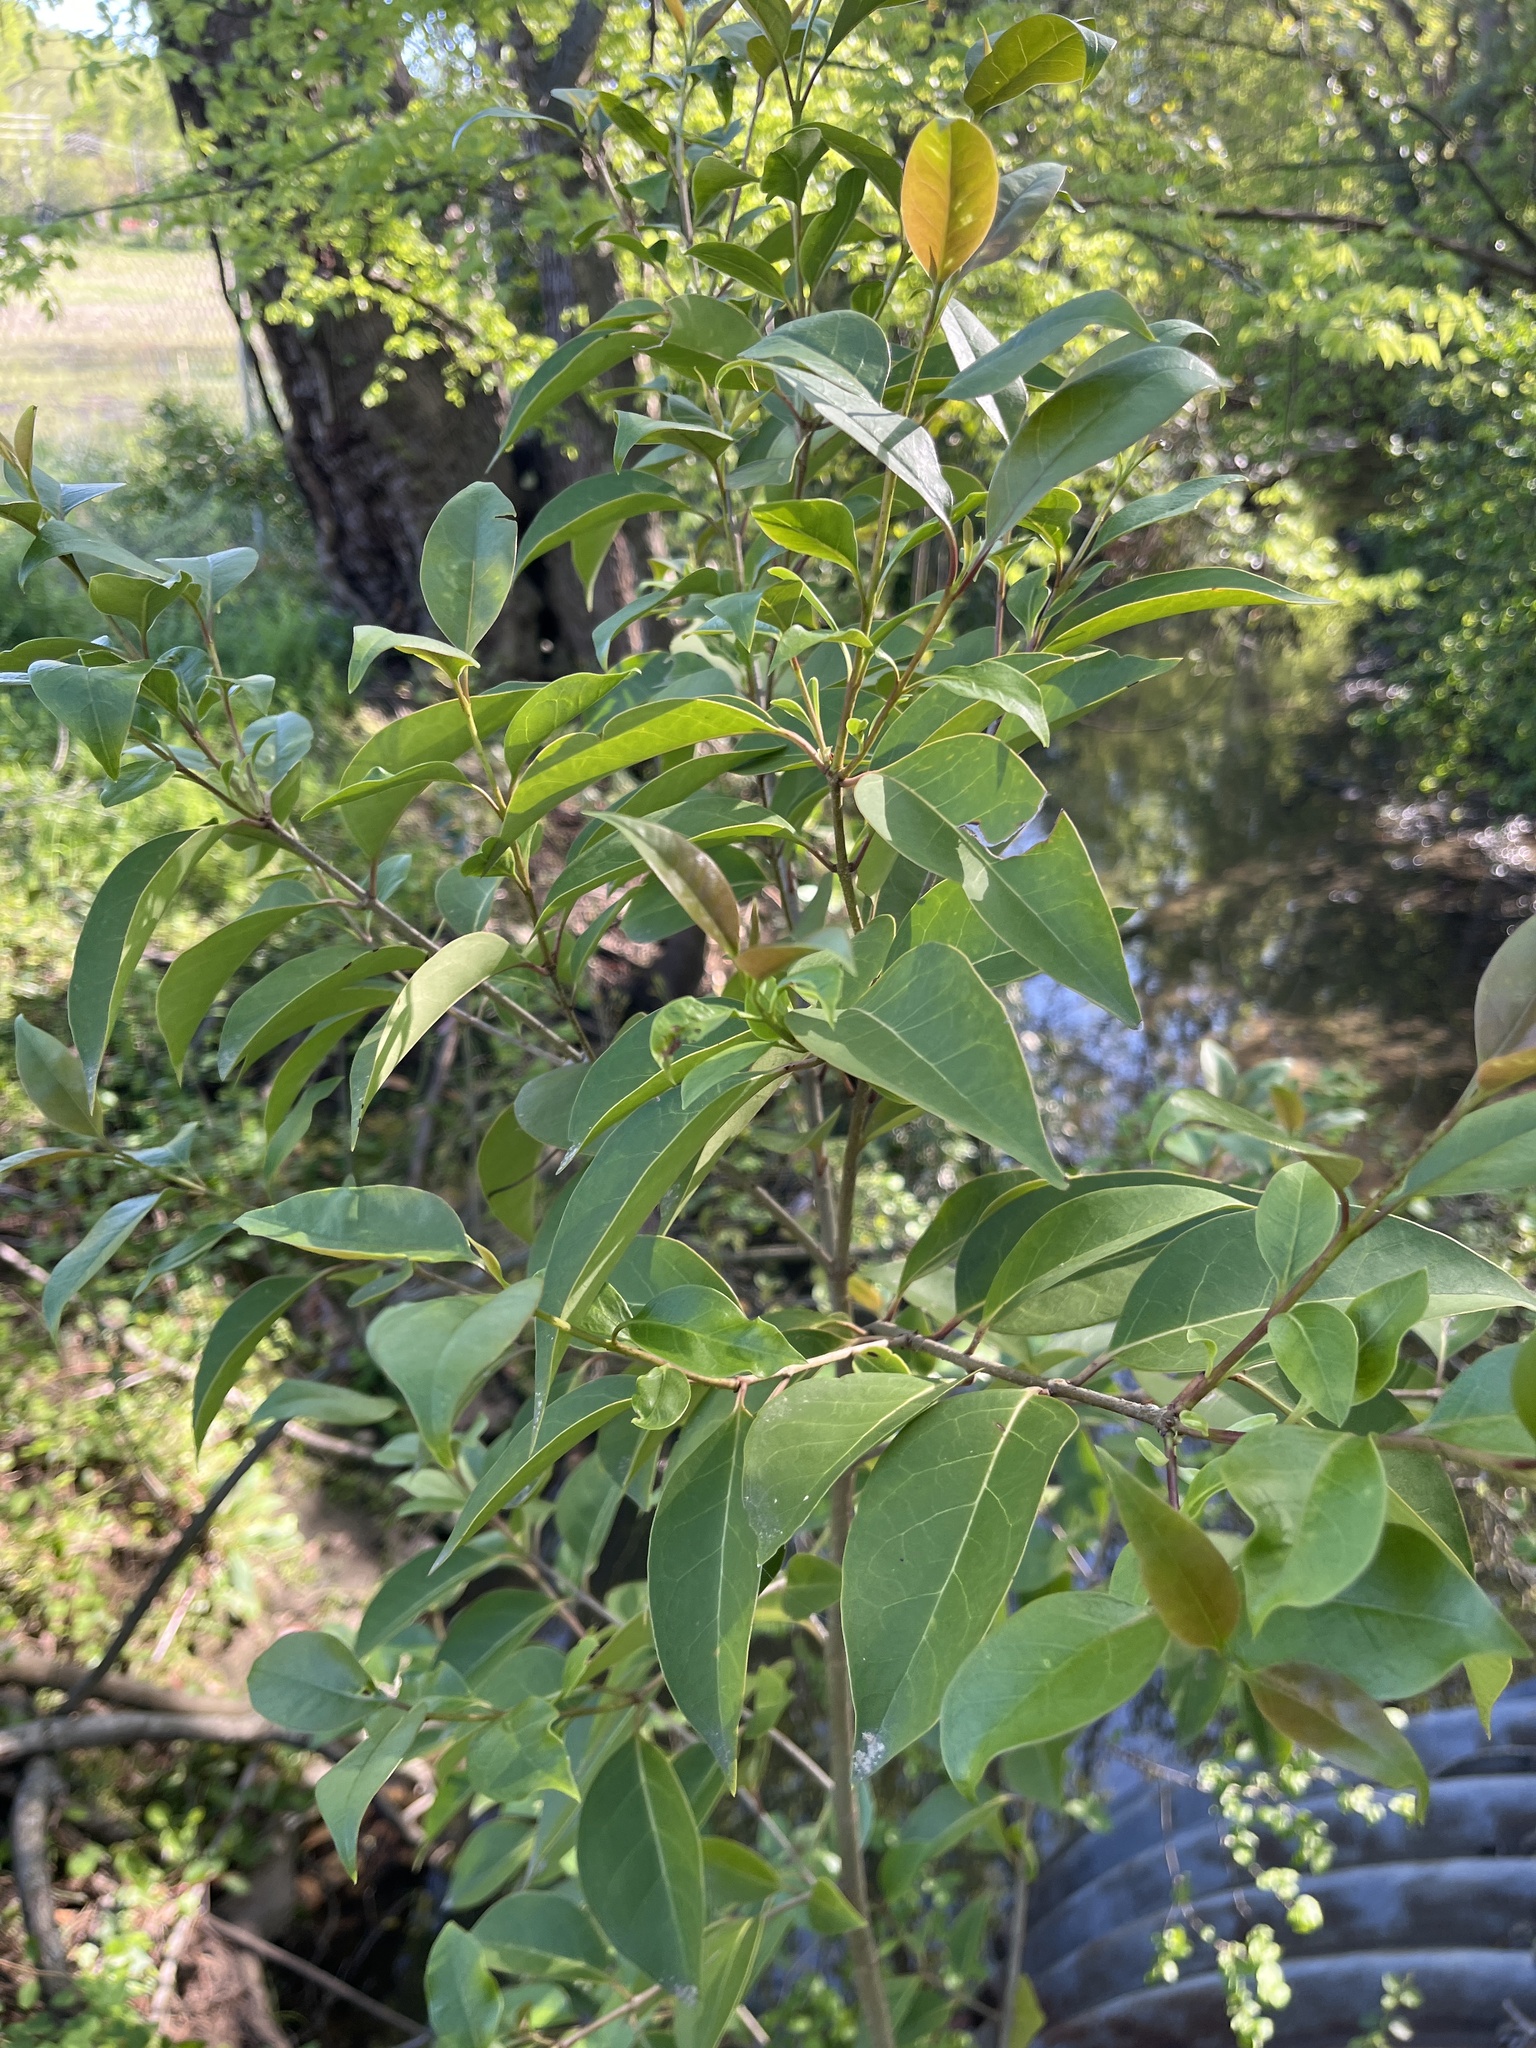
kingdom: Plantae
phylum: Tracheophyta
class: Magnoliopsida
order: Lamiales
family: Oleaceae
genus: Ligustrum
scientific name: Ligustrum lucidum
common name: Glossy privet
